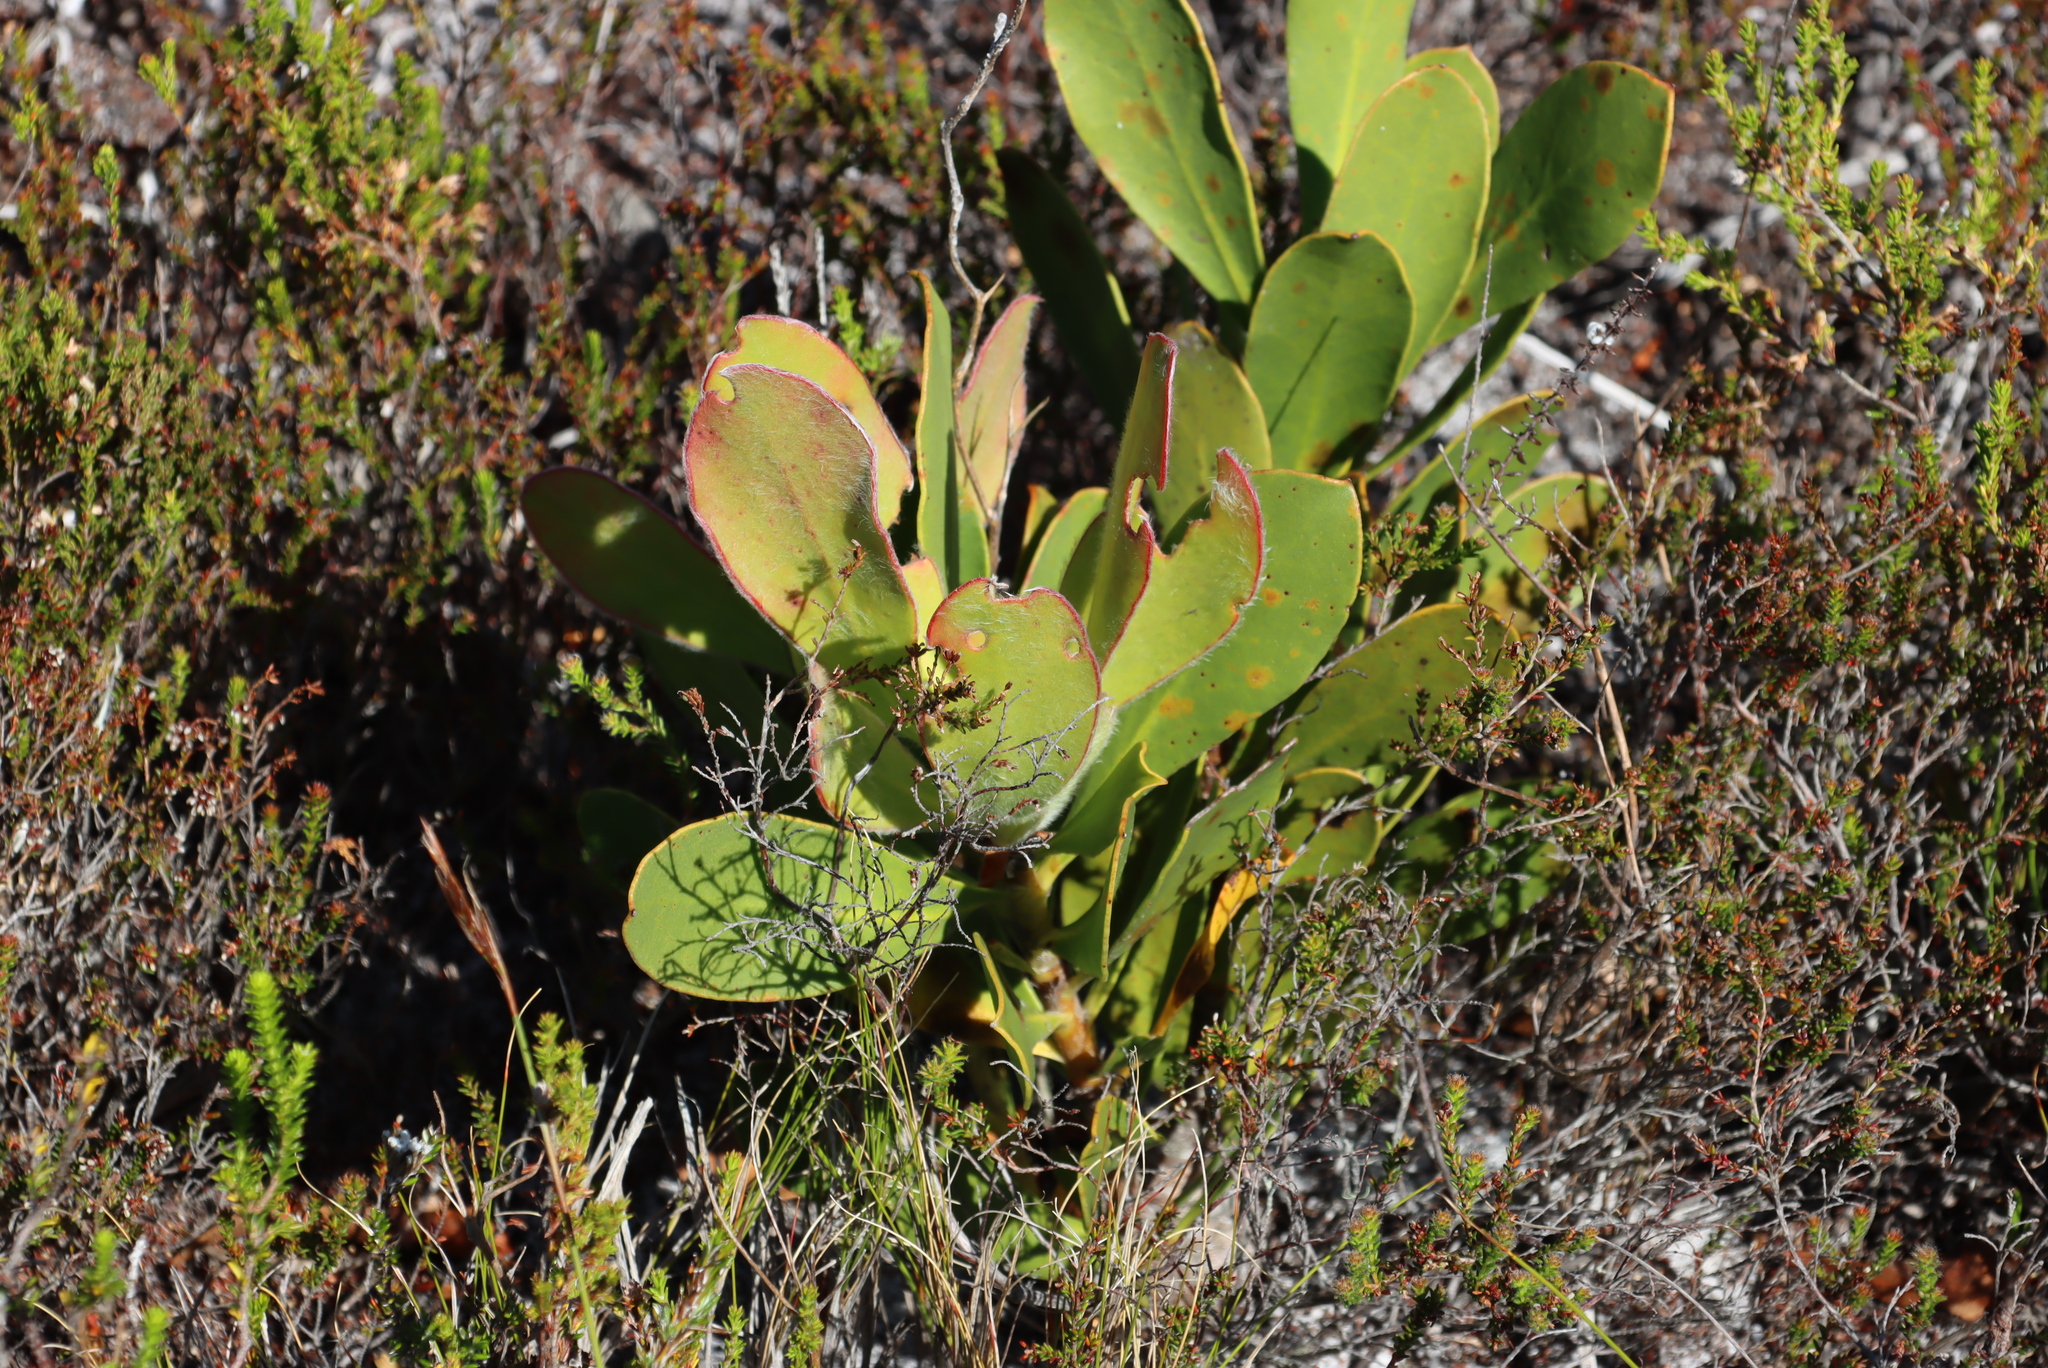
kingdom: Plantae
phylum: Tracheophyta
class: Magnoliopsida
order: Proteales
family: Proteaceae
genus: Protea
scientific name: Protea speciosa
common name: Brown-beard sugarbush
